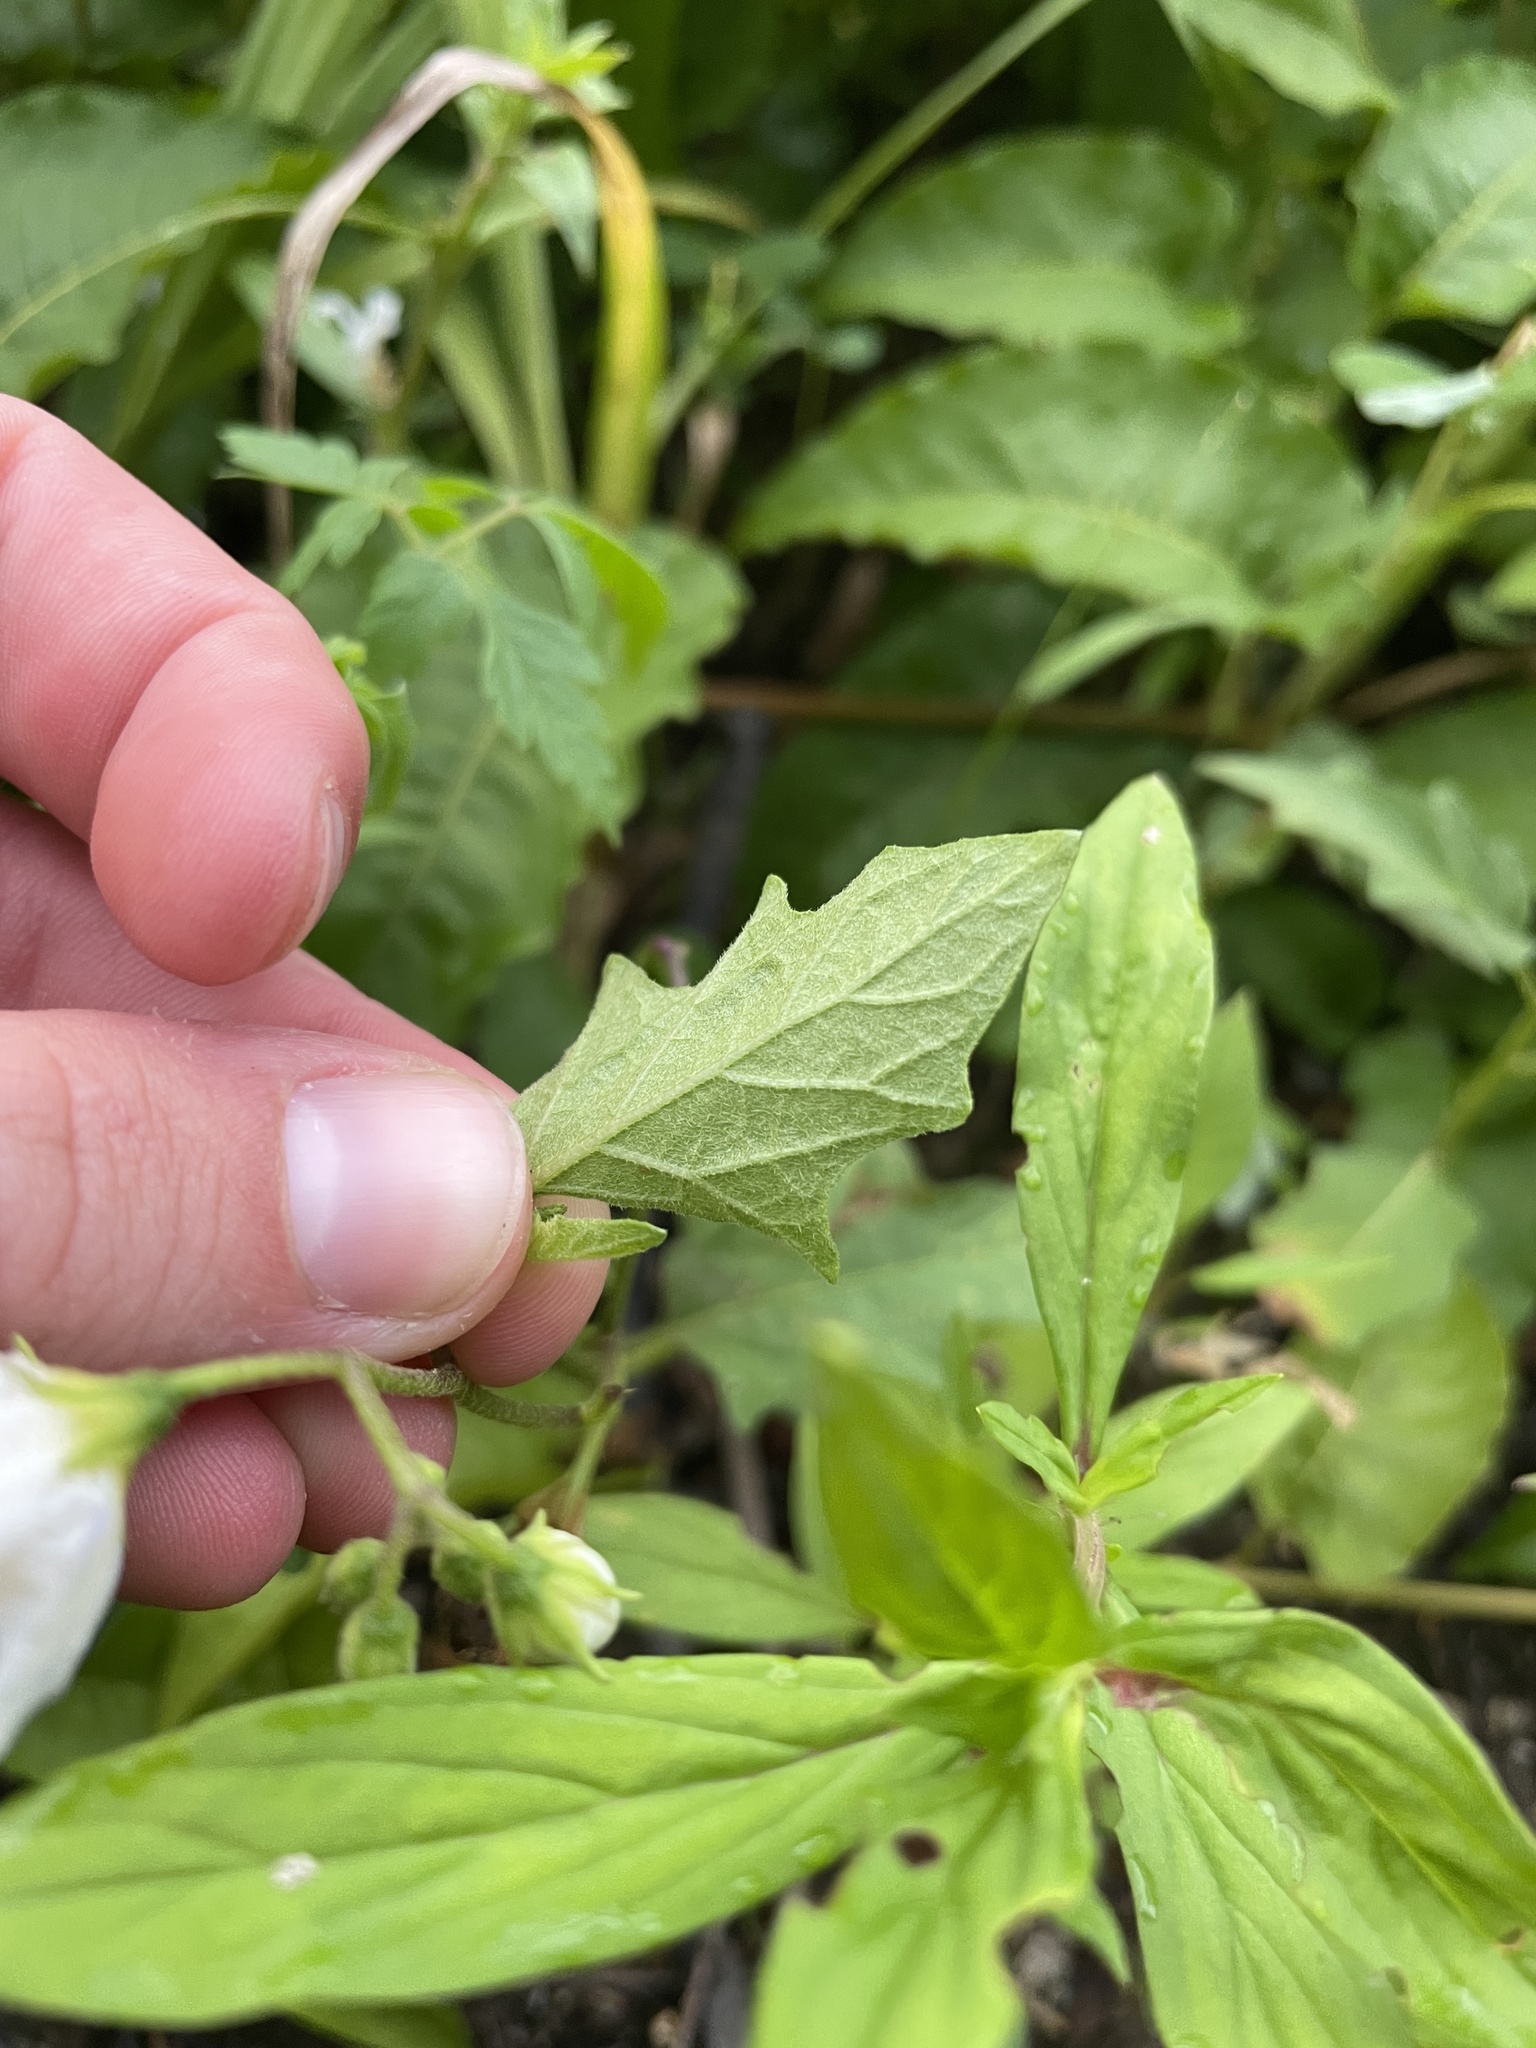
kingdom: Plantae
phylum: Tracheophyta
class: Magnoliopsida
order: Solanales
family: Solanaceae
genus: Solanum
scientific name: Solanum carolinense
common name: Horse-nettle
